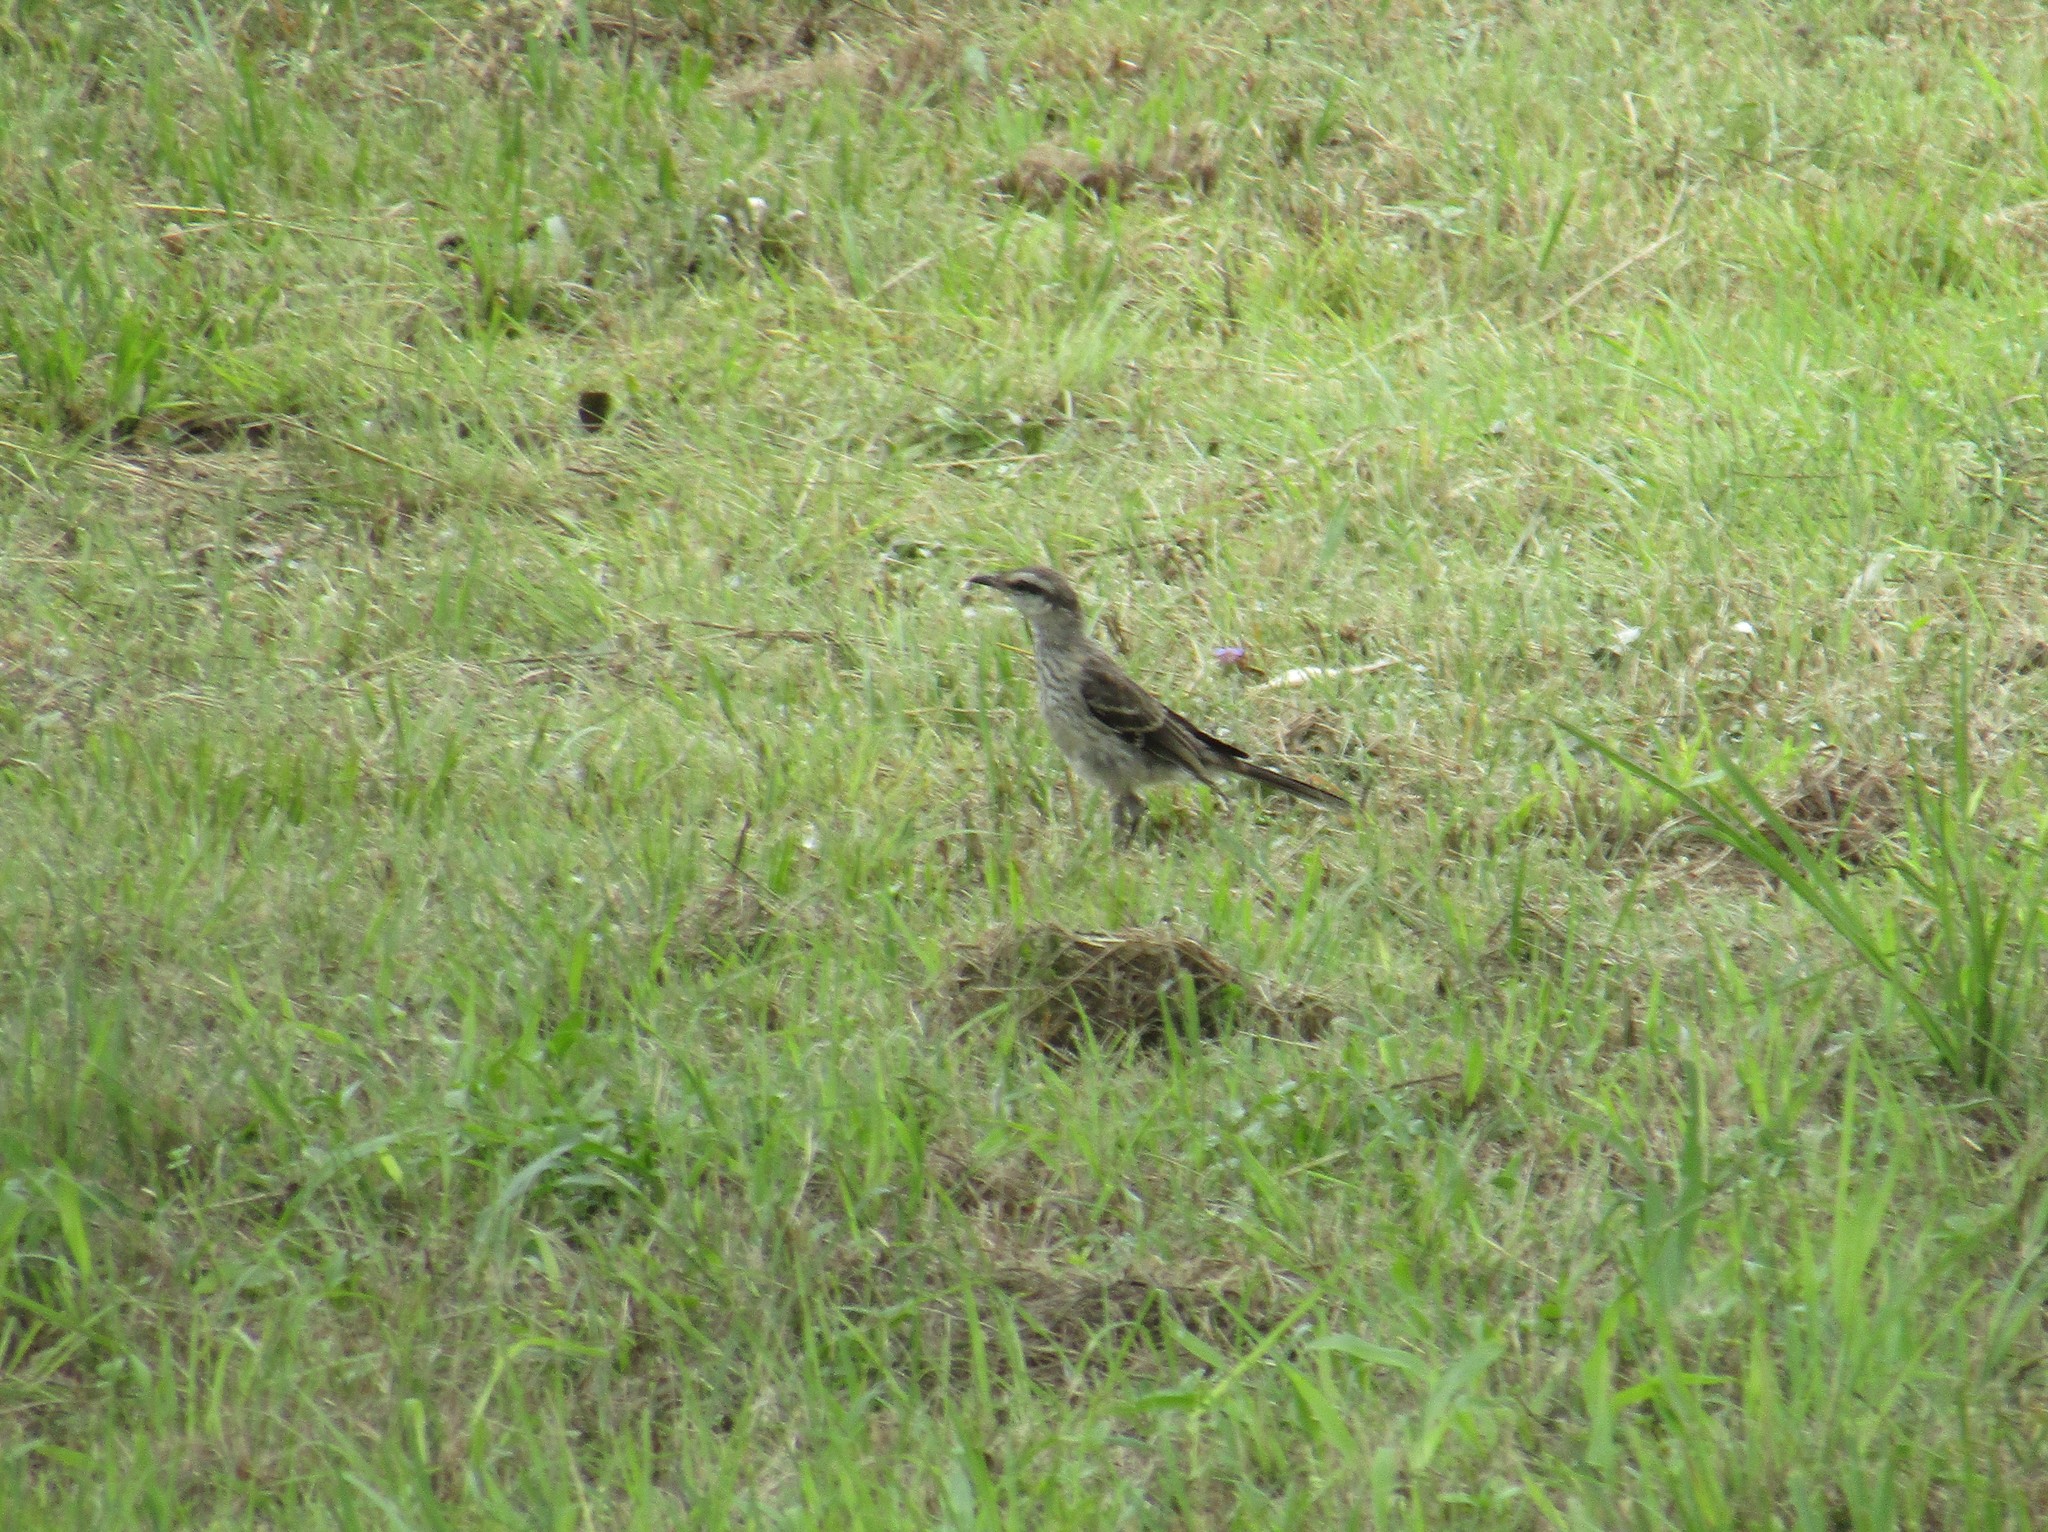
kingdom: Animalia
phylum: Chordata
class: Aves
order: Passeriformes
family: Mimidae
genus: Mimus
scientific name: Mimus saturninus
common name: Chalk-browed mockingbird
